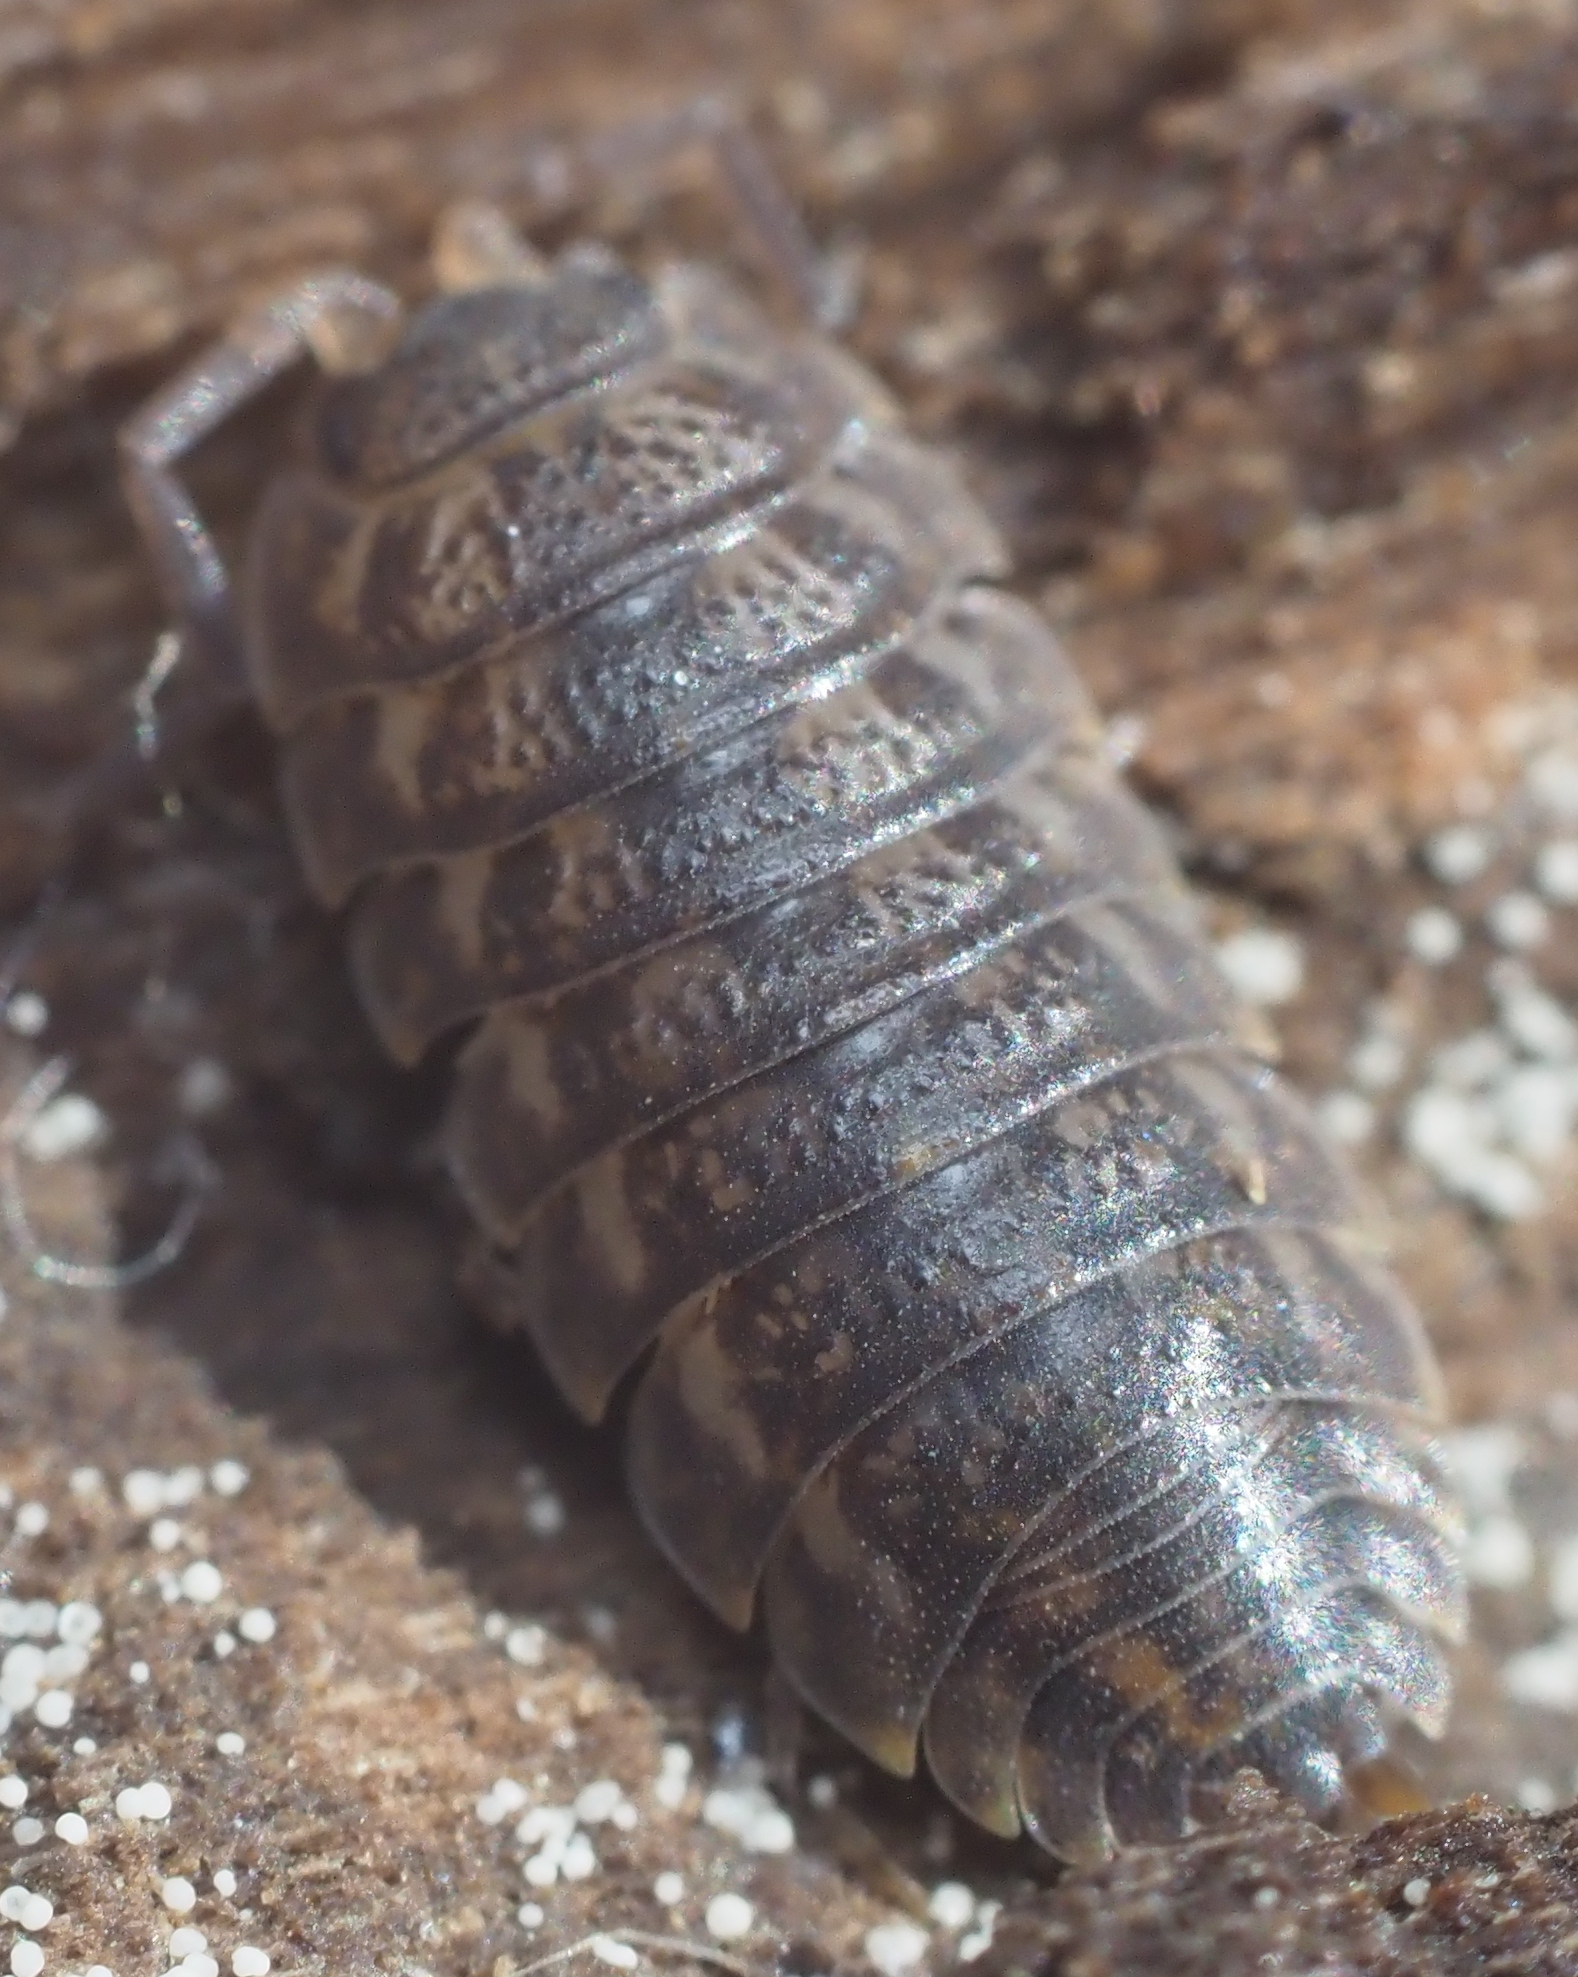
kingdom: Animalia
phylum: Arthropoda
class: Malacostraca
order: Isopoda
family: Trachelipodidae
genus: Trachelipus
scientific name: Trachelipus rathkii
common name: Isopod
